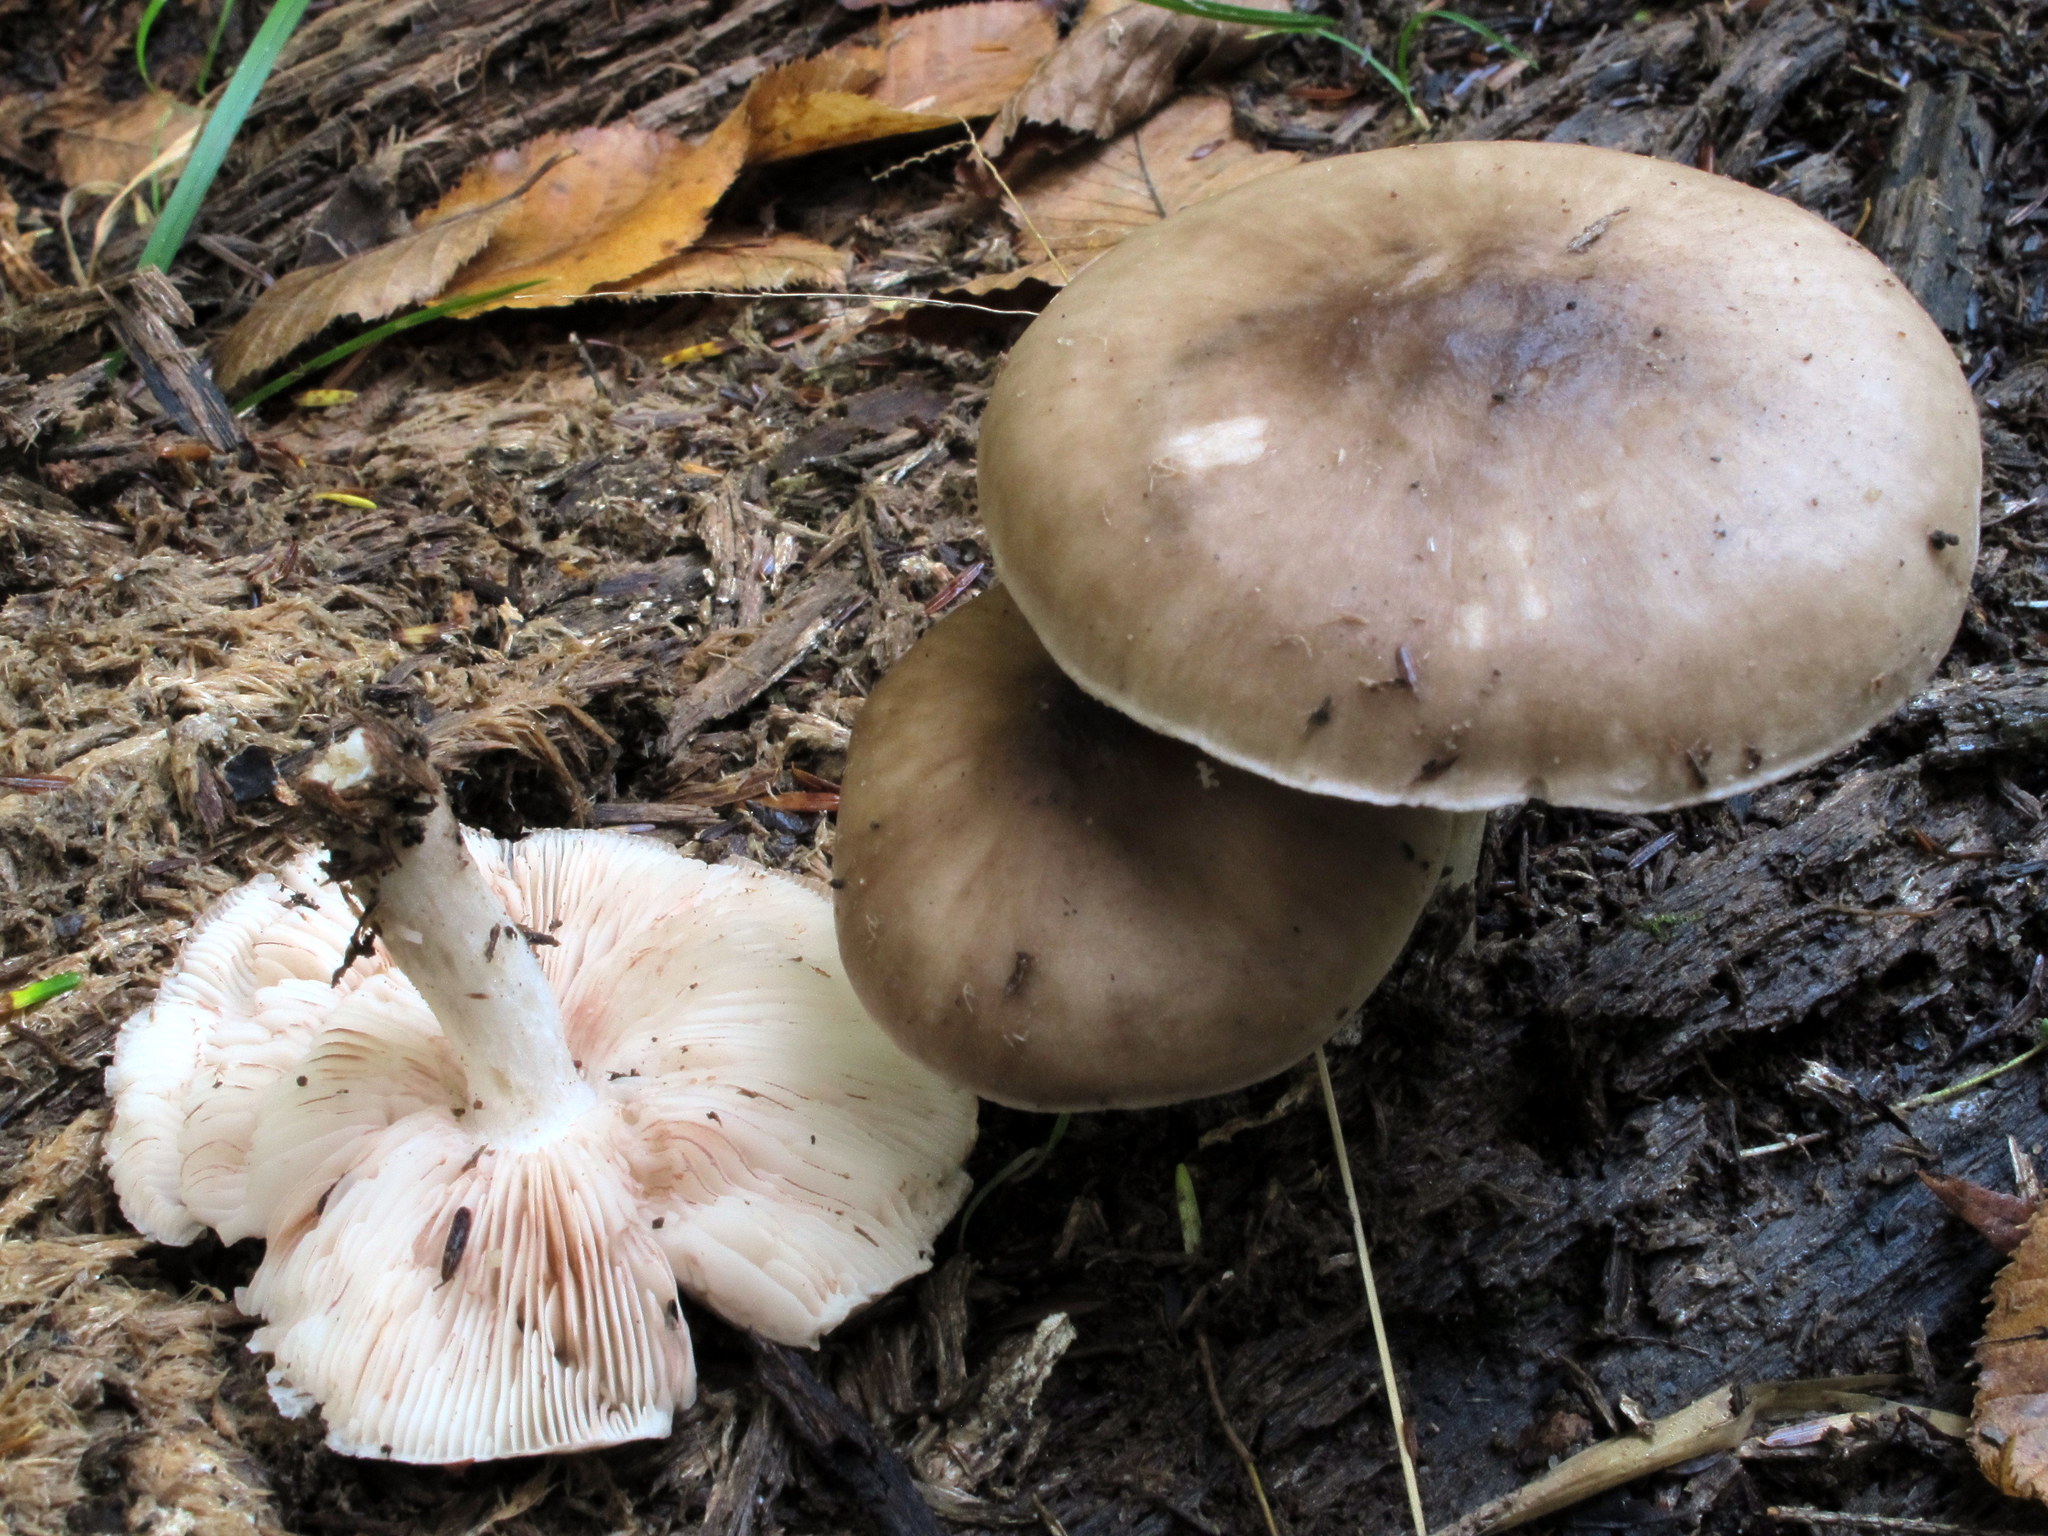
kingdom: Fungi
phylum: Basidiomycota
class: Agaricomycetes
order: Agaricales
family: Pluteaceae
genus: Pluteus
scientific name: Pluteus cervinus
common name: Deer shield
